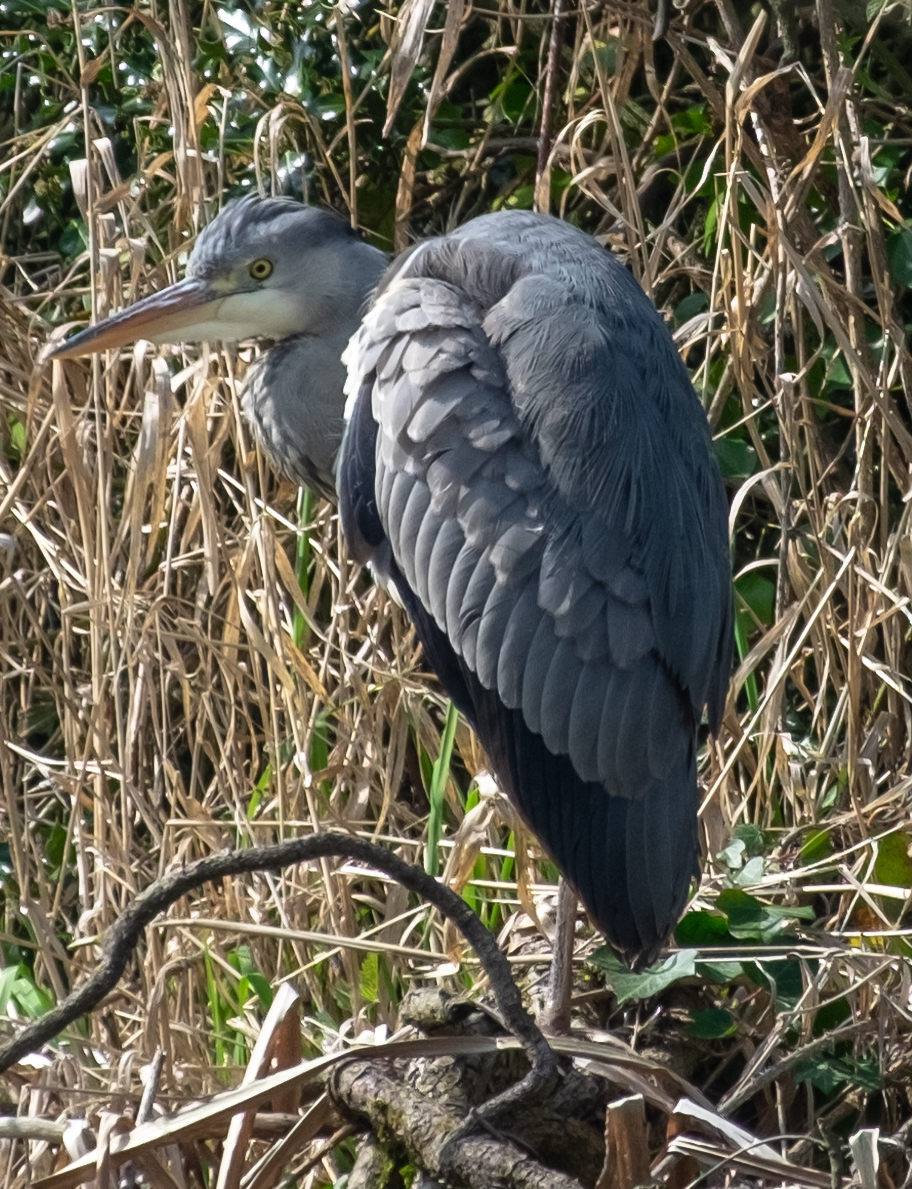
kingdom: Animalia
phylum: Chordata
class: Aves
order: Pelecaniformes
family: Ardeidae
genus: Ardea
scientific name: Ardea cinerea
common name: Grey heron
